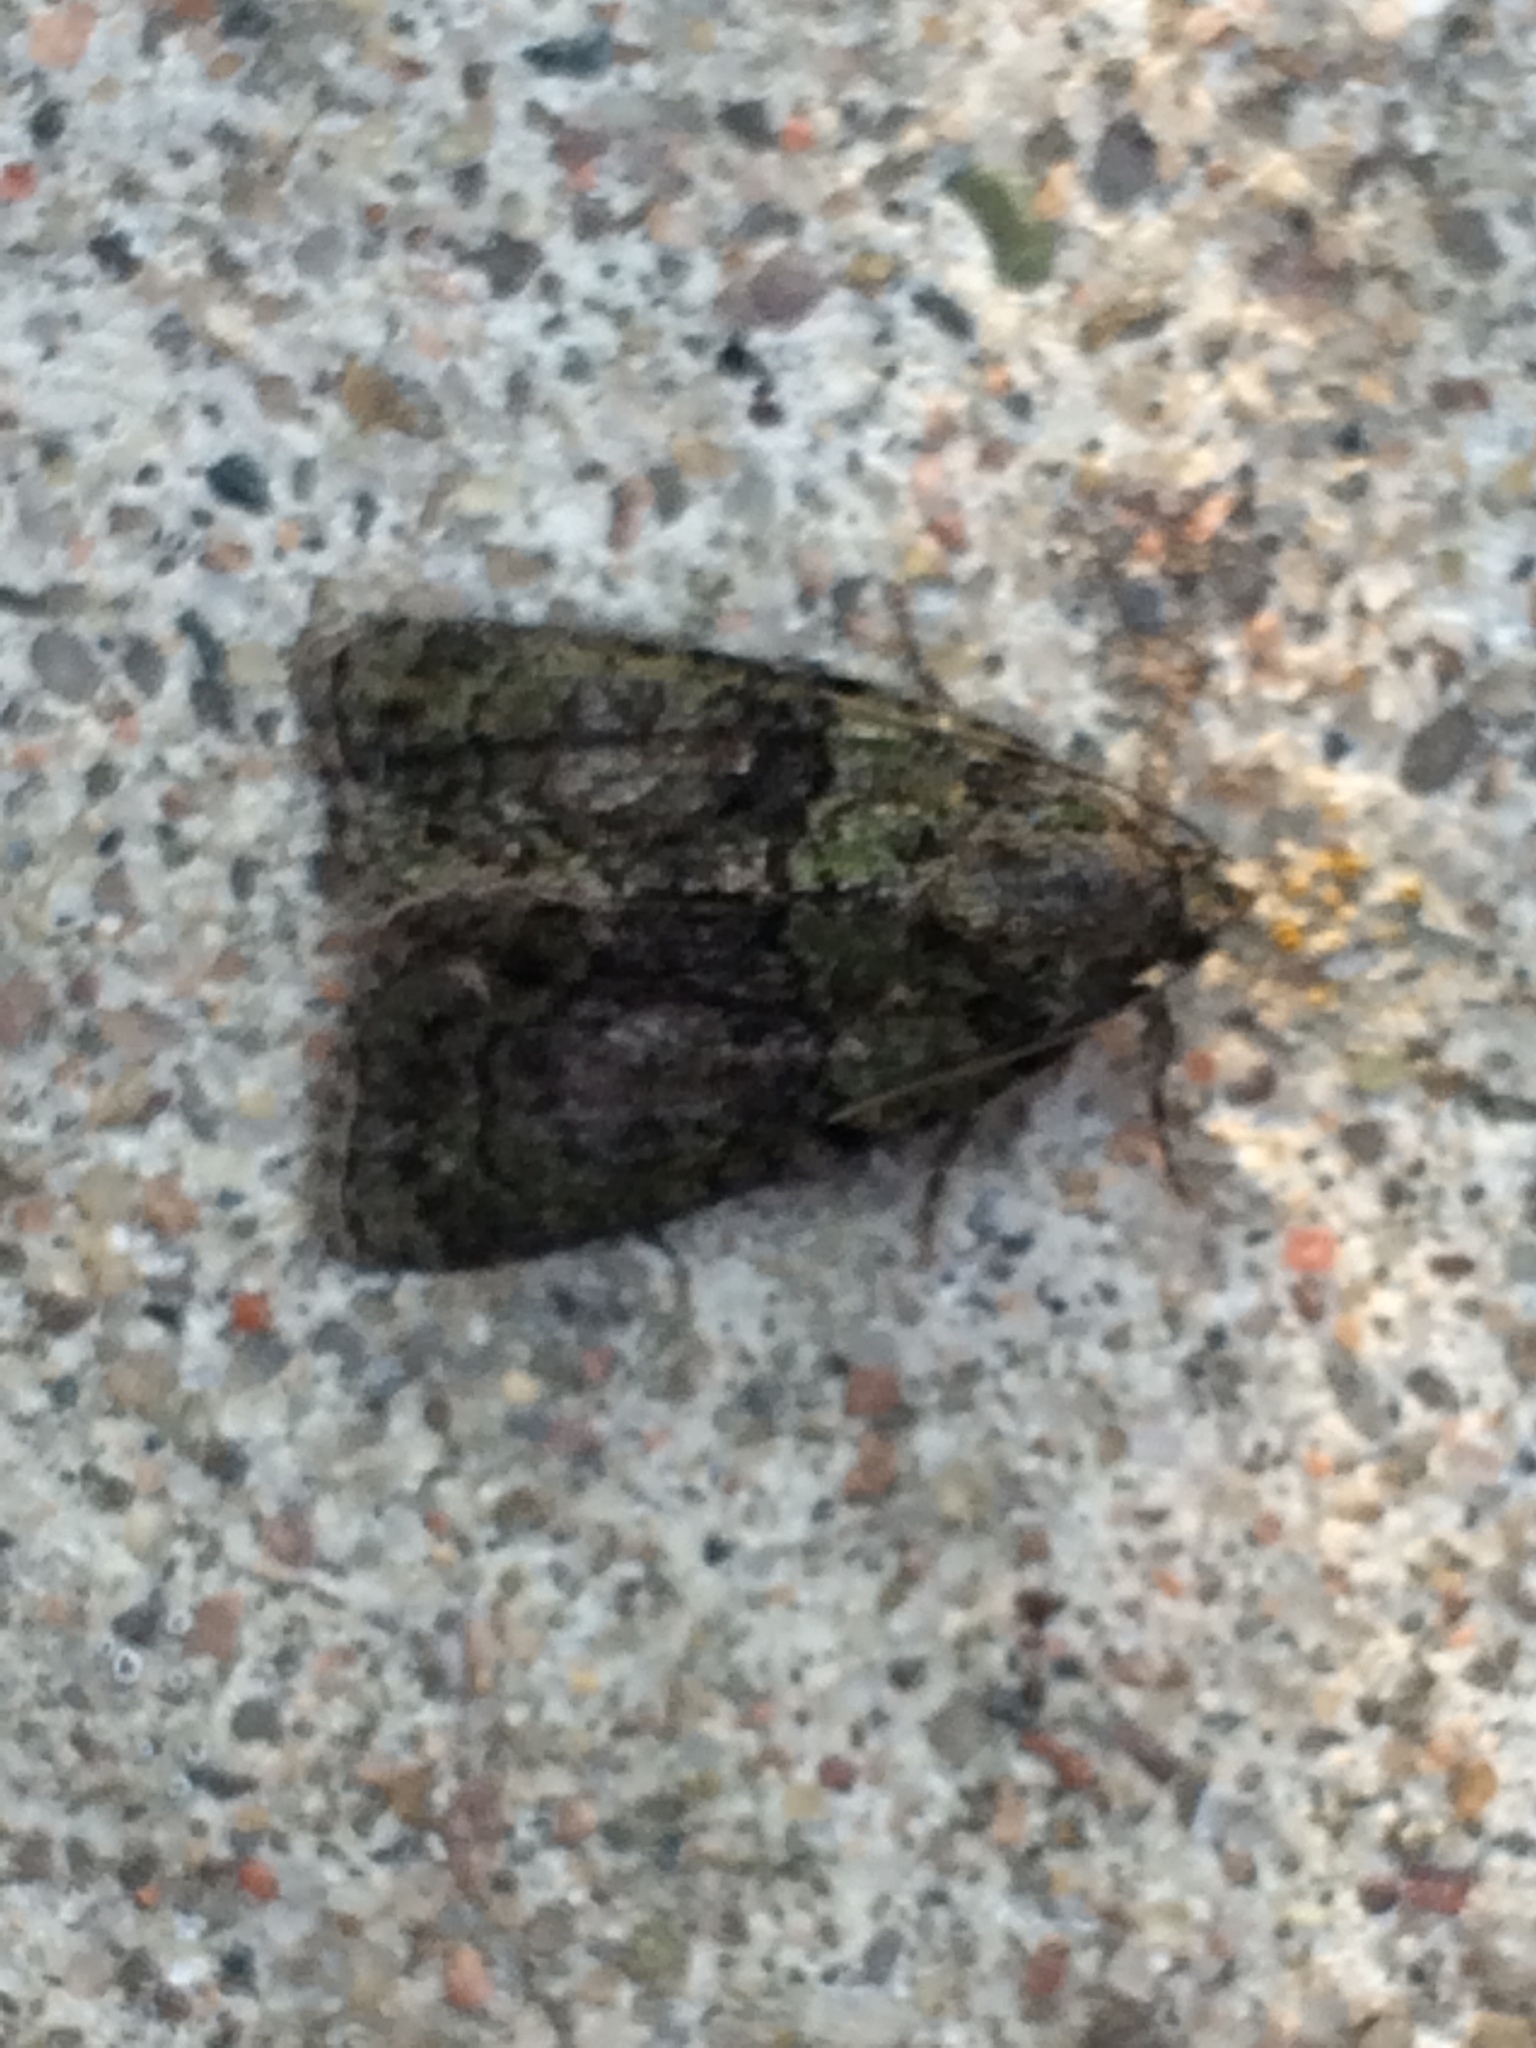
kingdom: Animalia
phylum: Arthropoda
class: Insecta
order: Lepidoptera
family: Noctuidae
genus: Cryphia
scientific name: Cryphia algae
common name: Tree-lichen beauty
